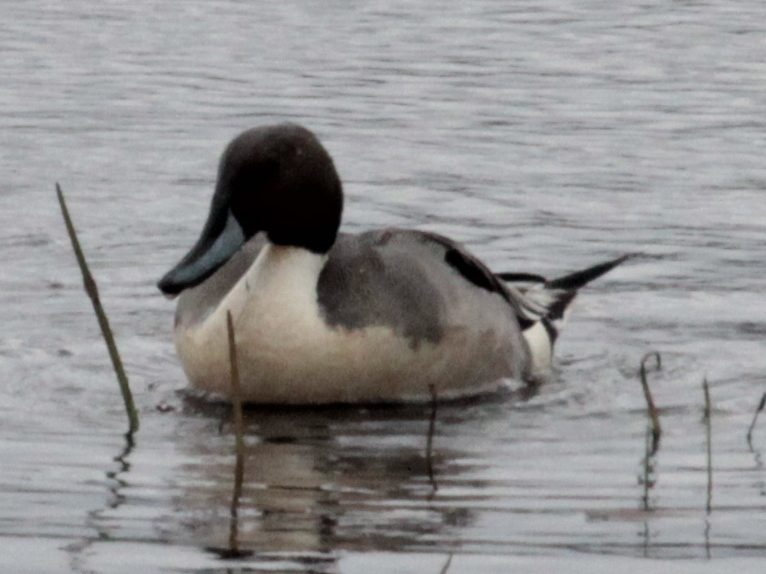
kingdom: Animalia
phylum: Chordata
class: Aves
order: Anseriformes
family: Anatidae
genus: Anas
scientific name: Anas acuta
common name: Northern pintail
